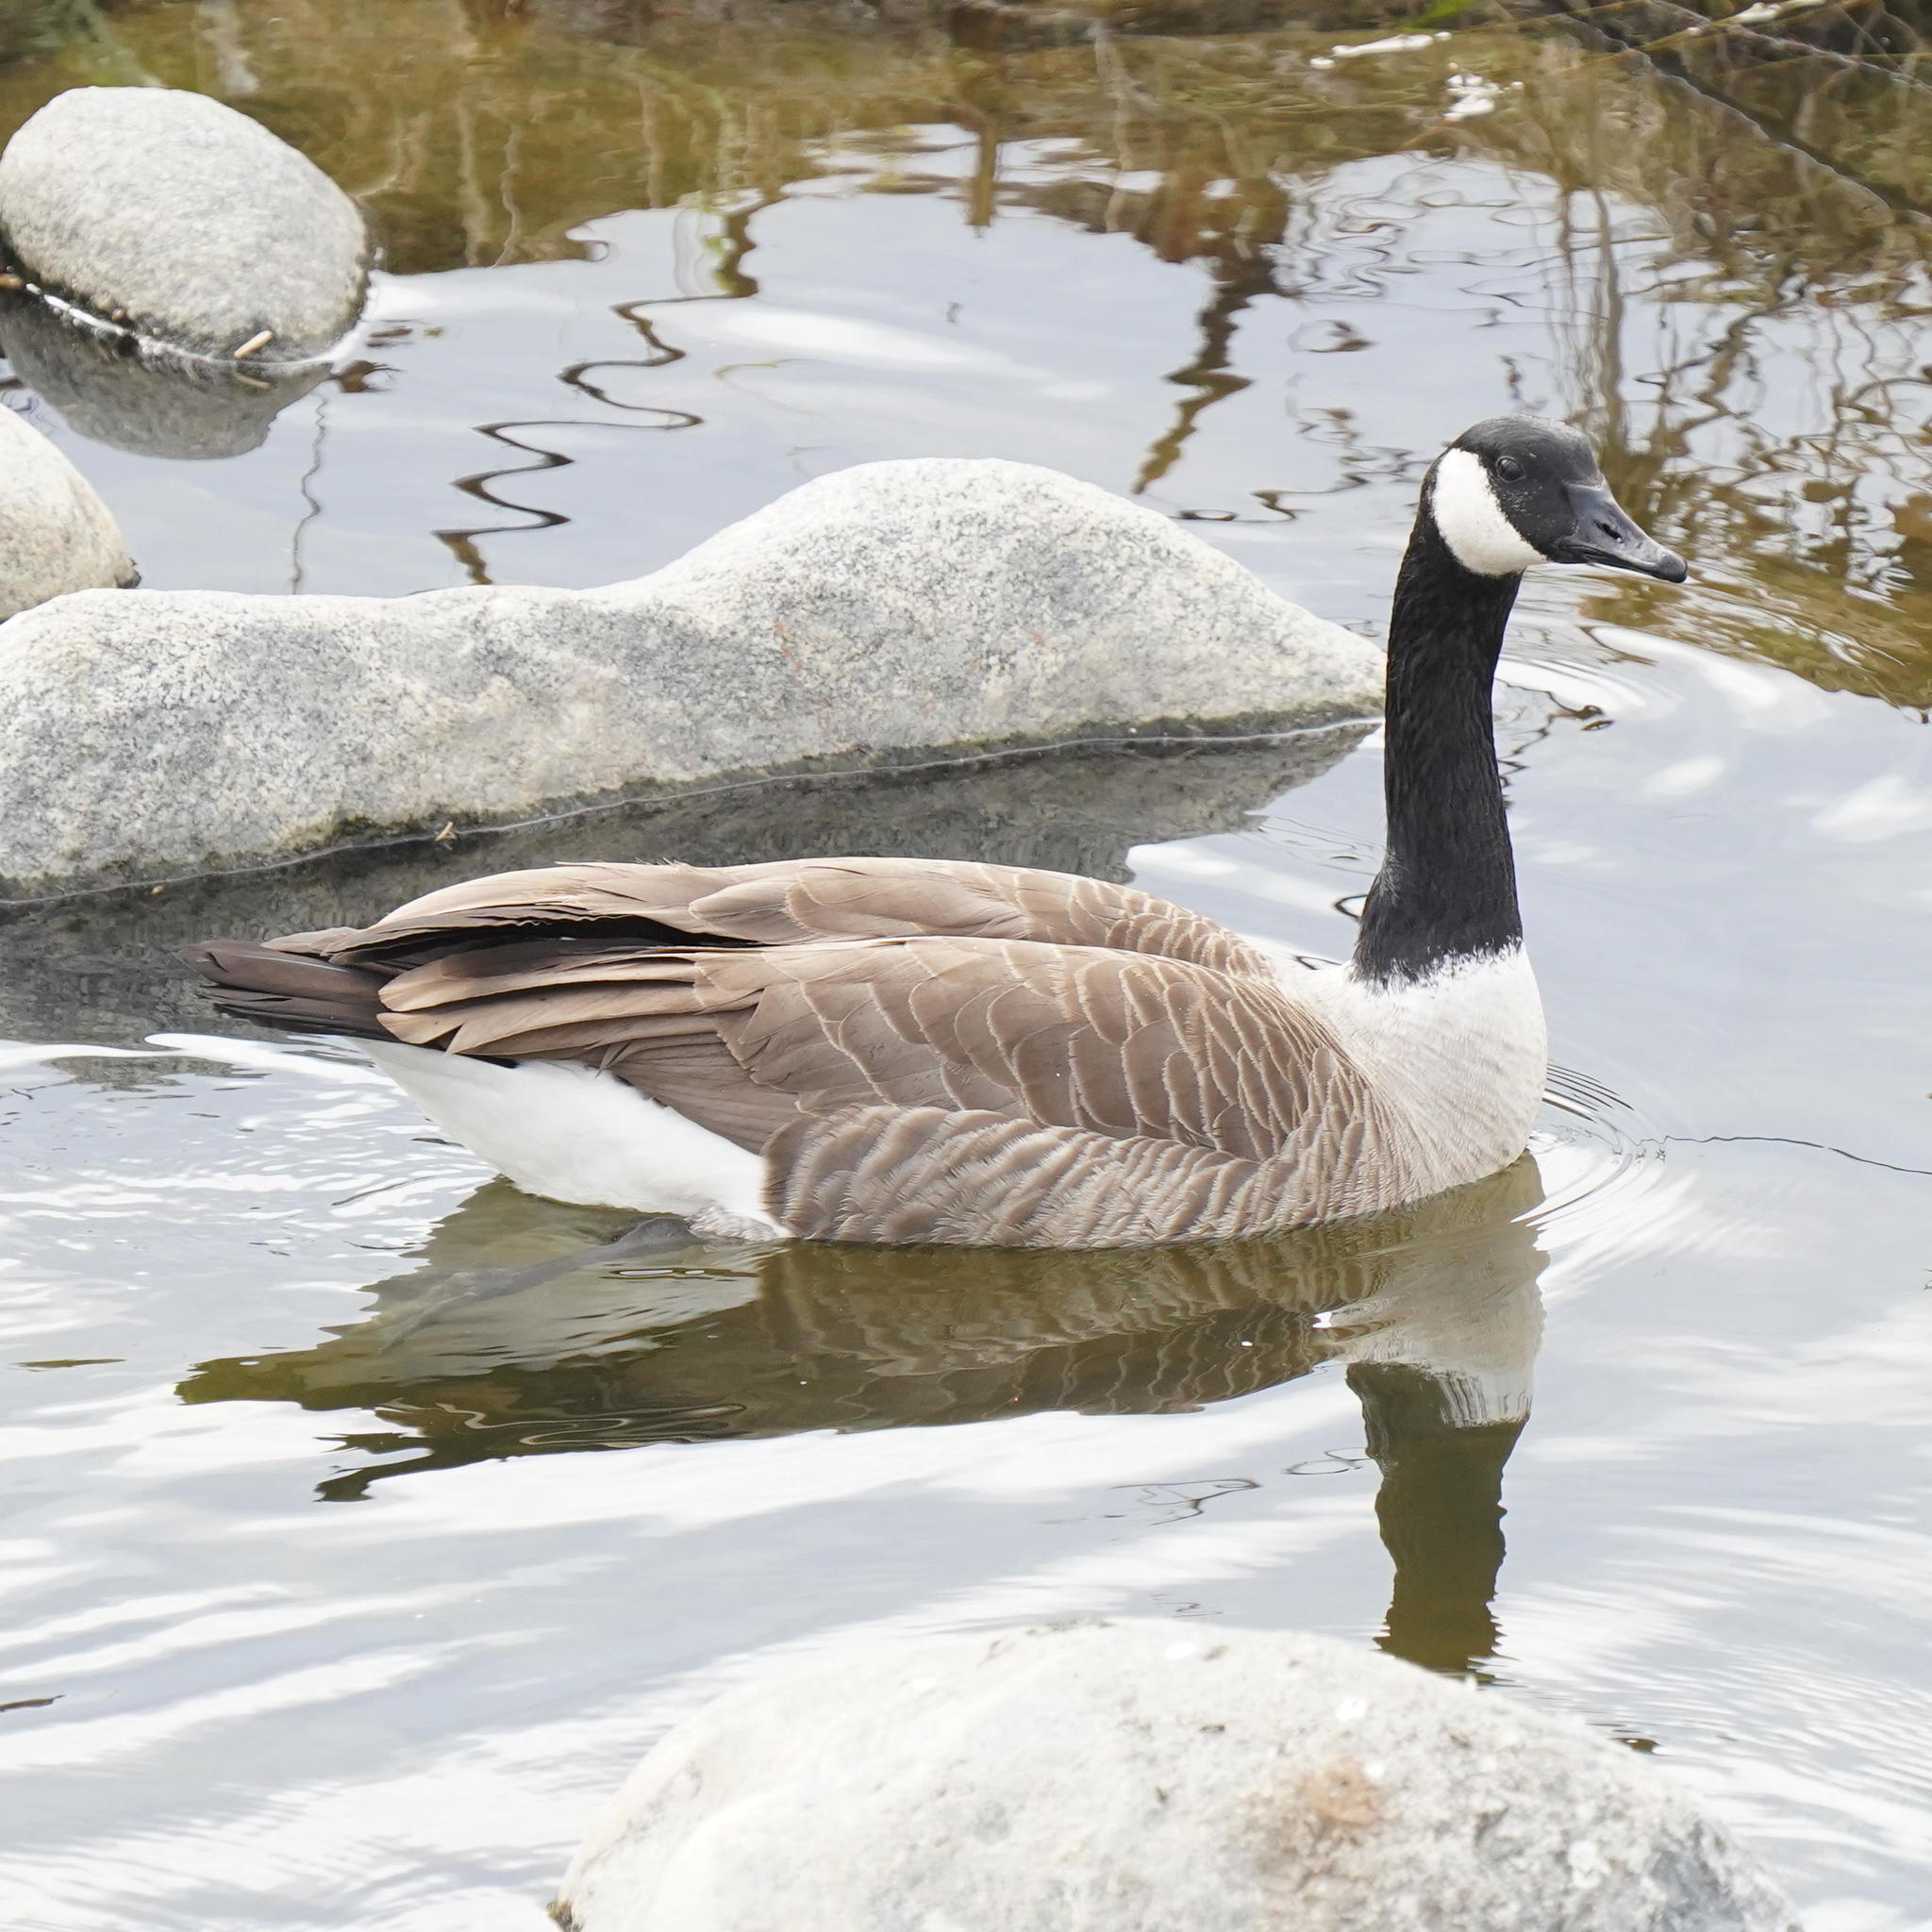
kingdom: Animalia
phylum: Chordata
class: Aves
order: Anseriformes
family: Anatidae
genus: Branta
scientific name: Branta canadensis
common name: Canada goose
